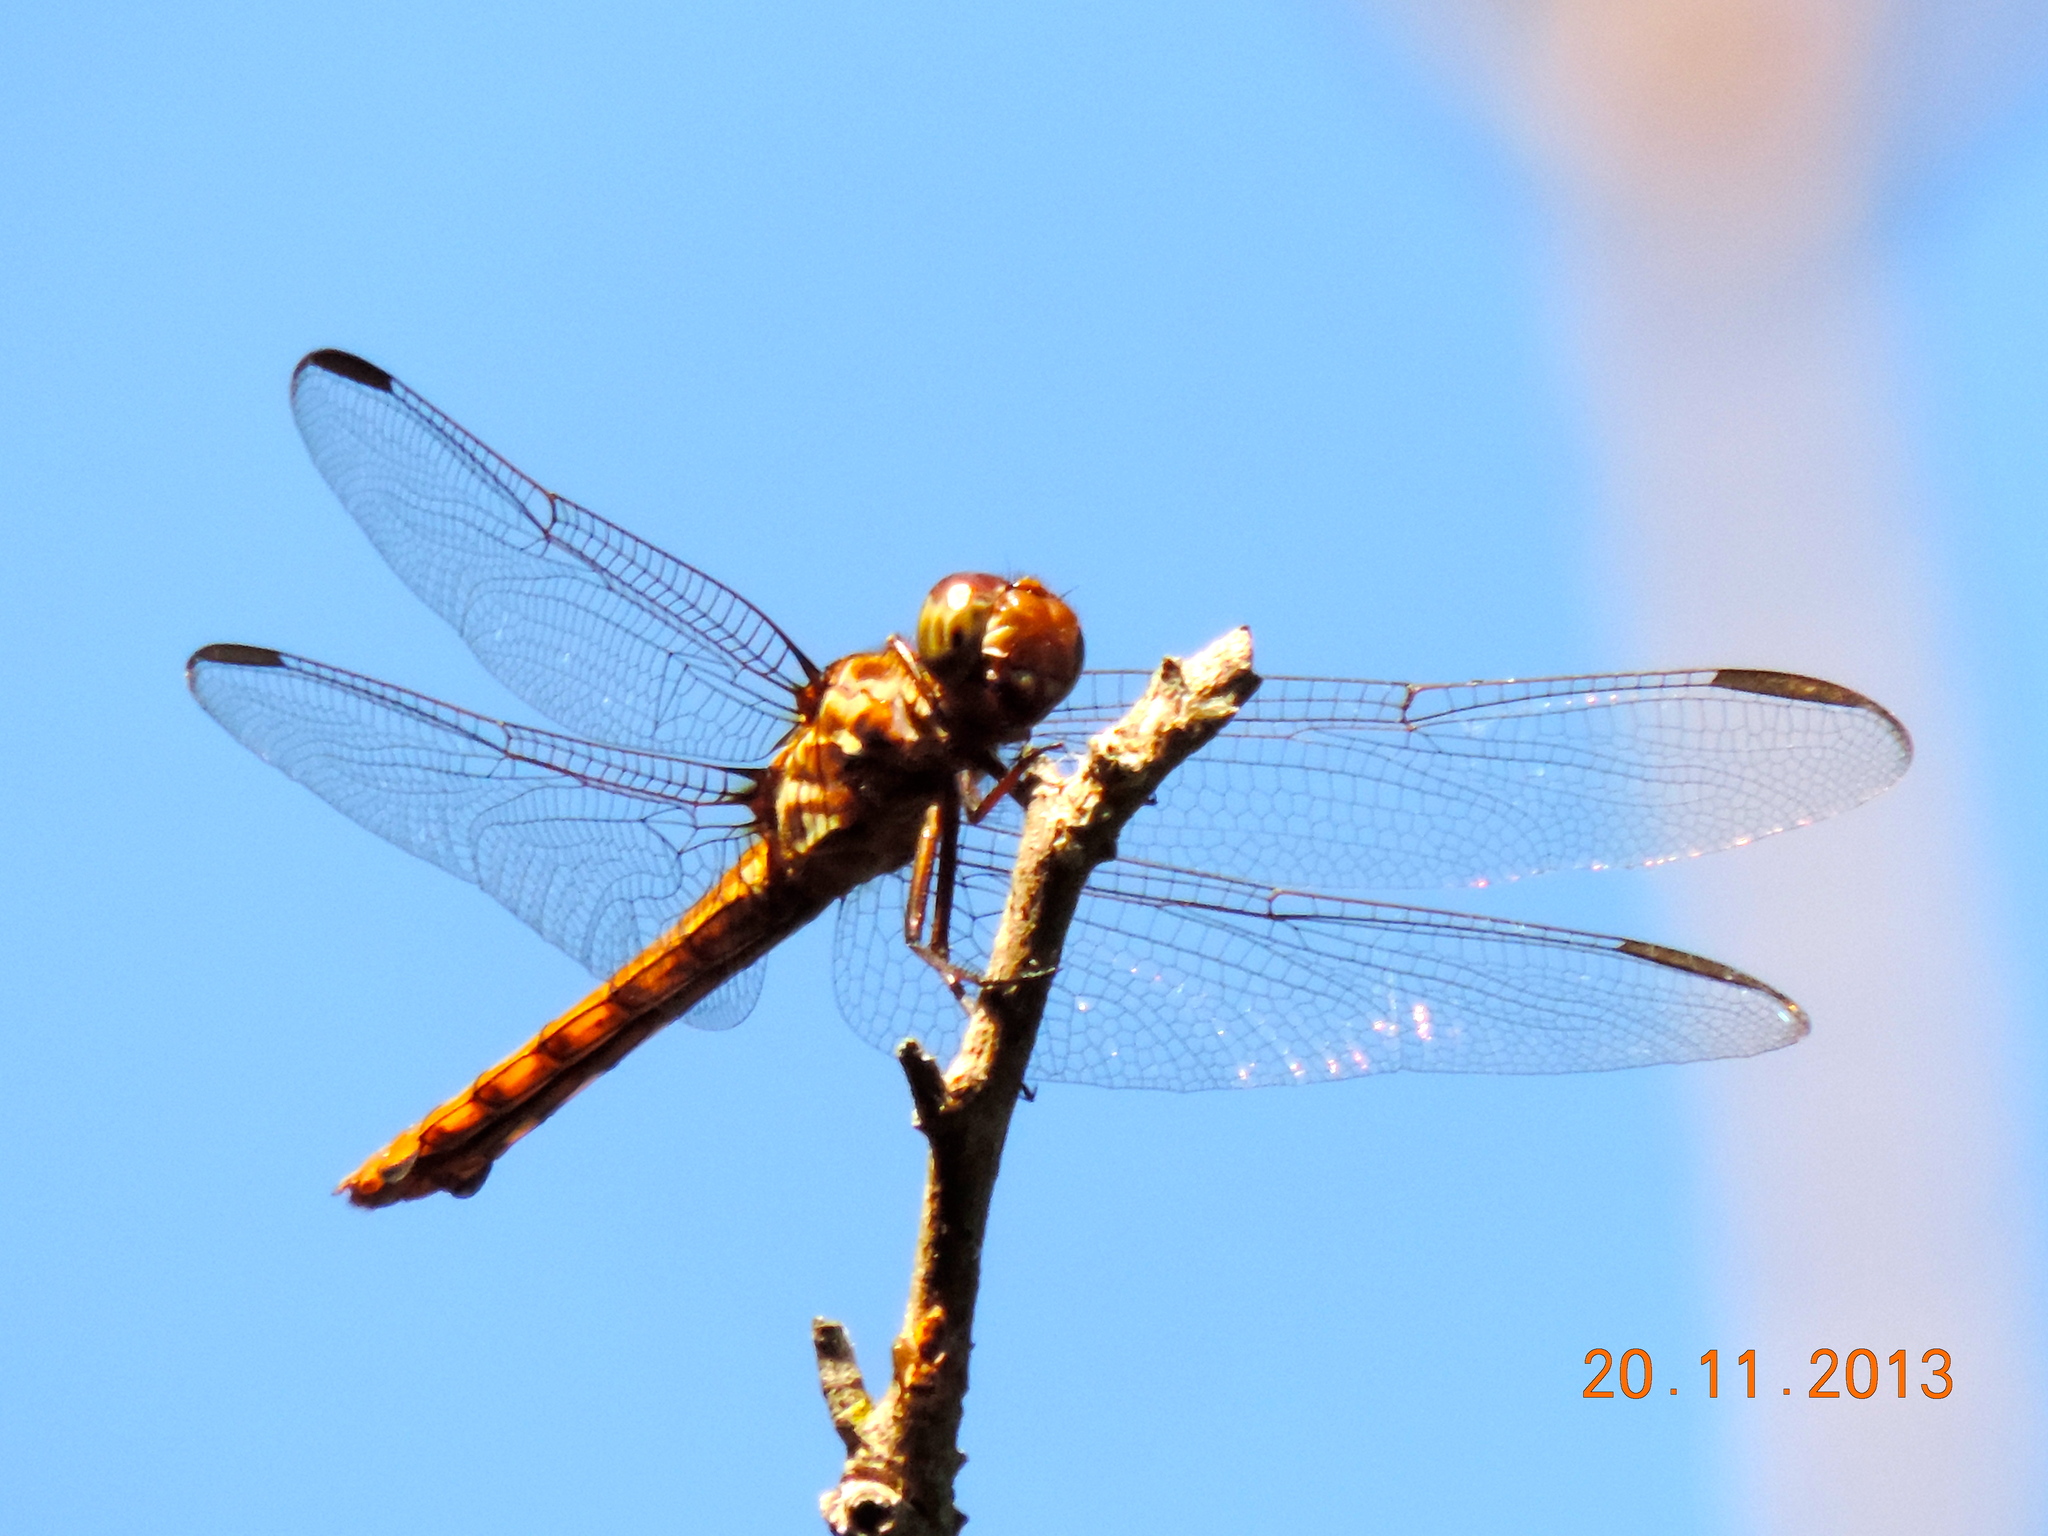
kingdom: Animalia
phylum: Arthropoda
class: Insecta
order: Odonata
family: Libellulidae
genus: Orthemis
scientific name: Orthemis ferruginea
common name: Roseate skimmer
